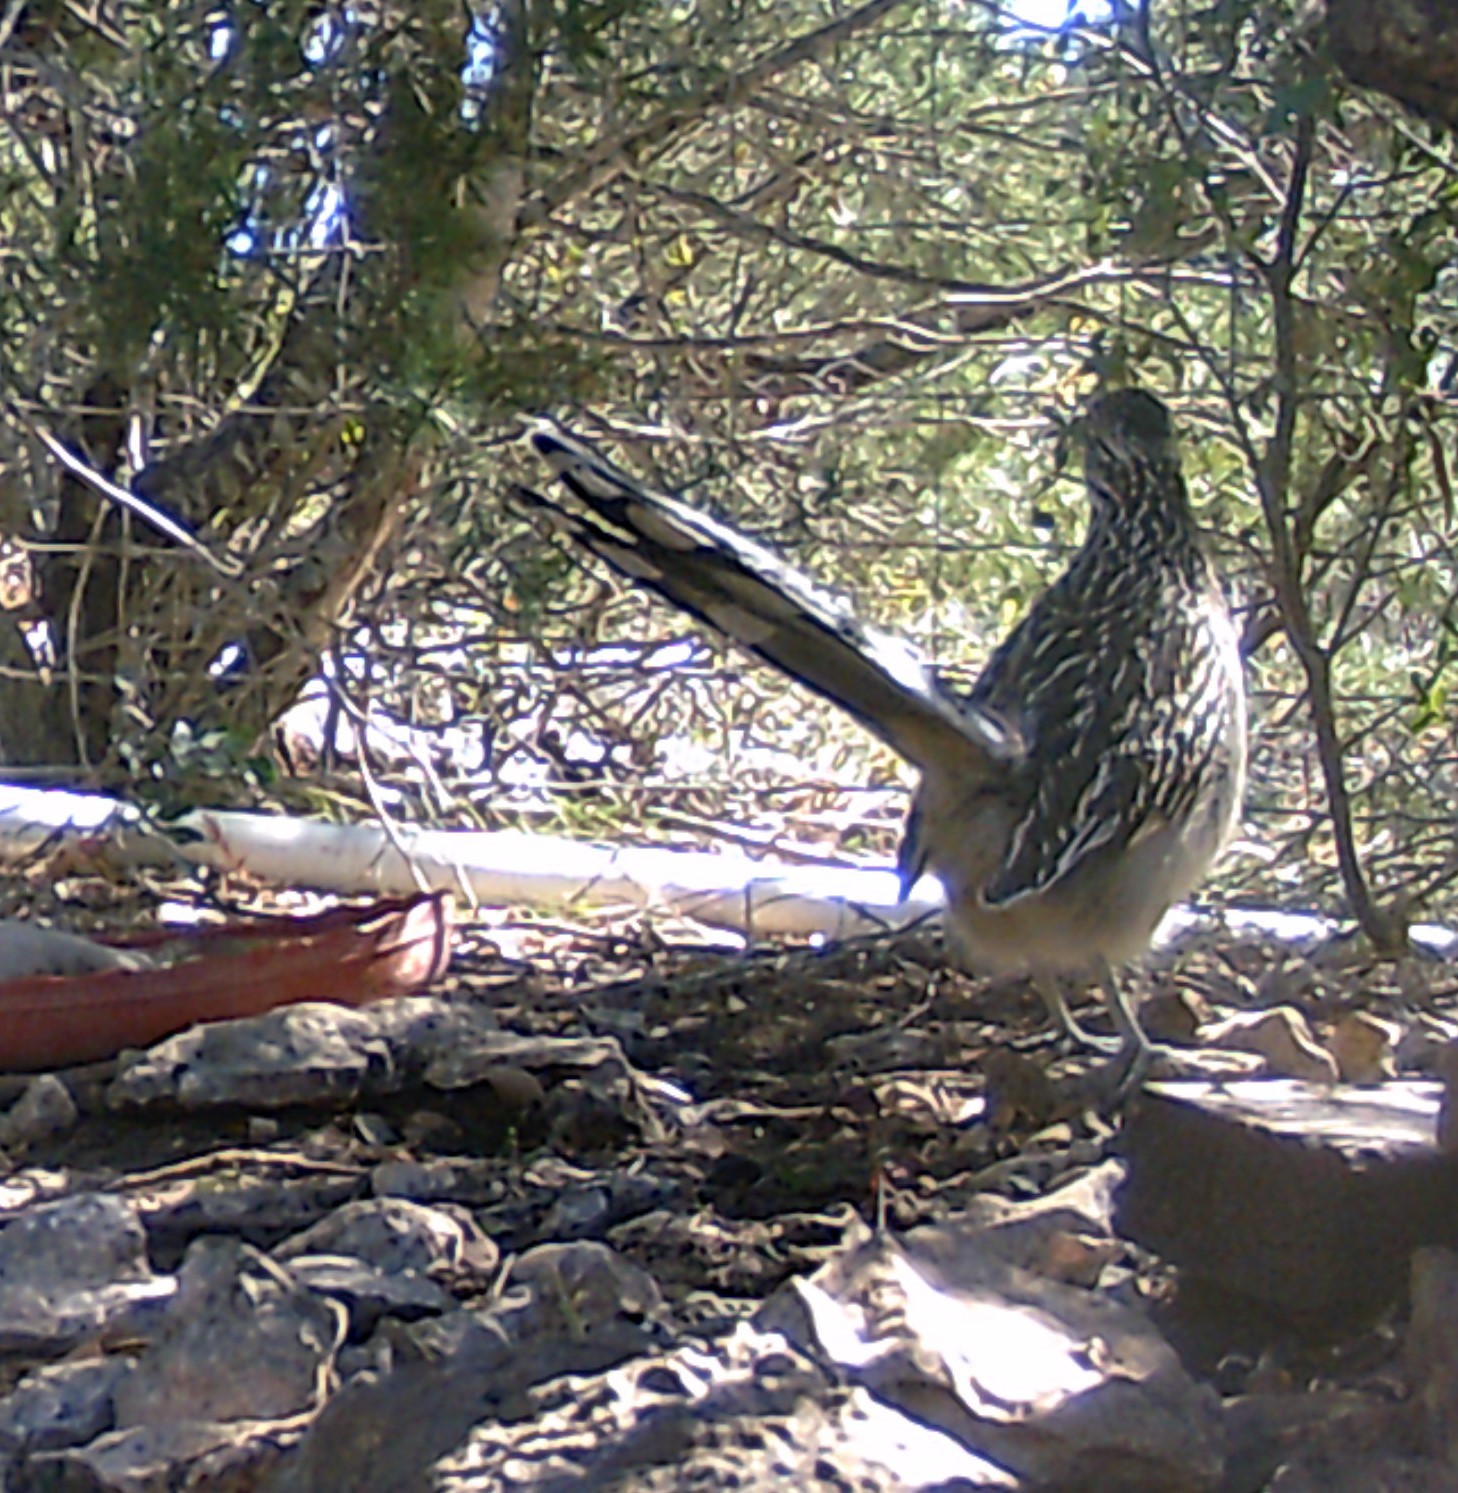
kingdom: Animalia
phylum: Chordata
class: Aves
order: Cuculiformes
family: Cuculidae
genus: Geococcyx
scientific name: Geococcyx californianus
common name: Greater roadrunner
